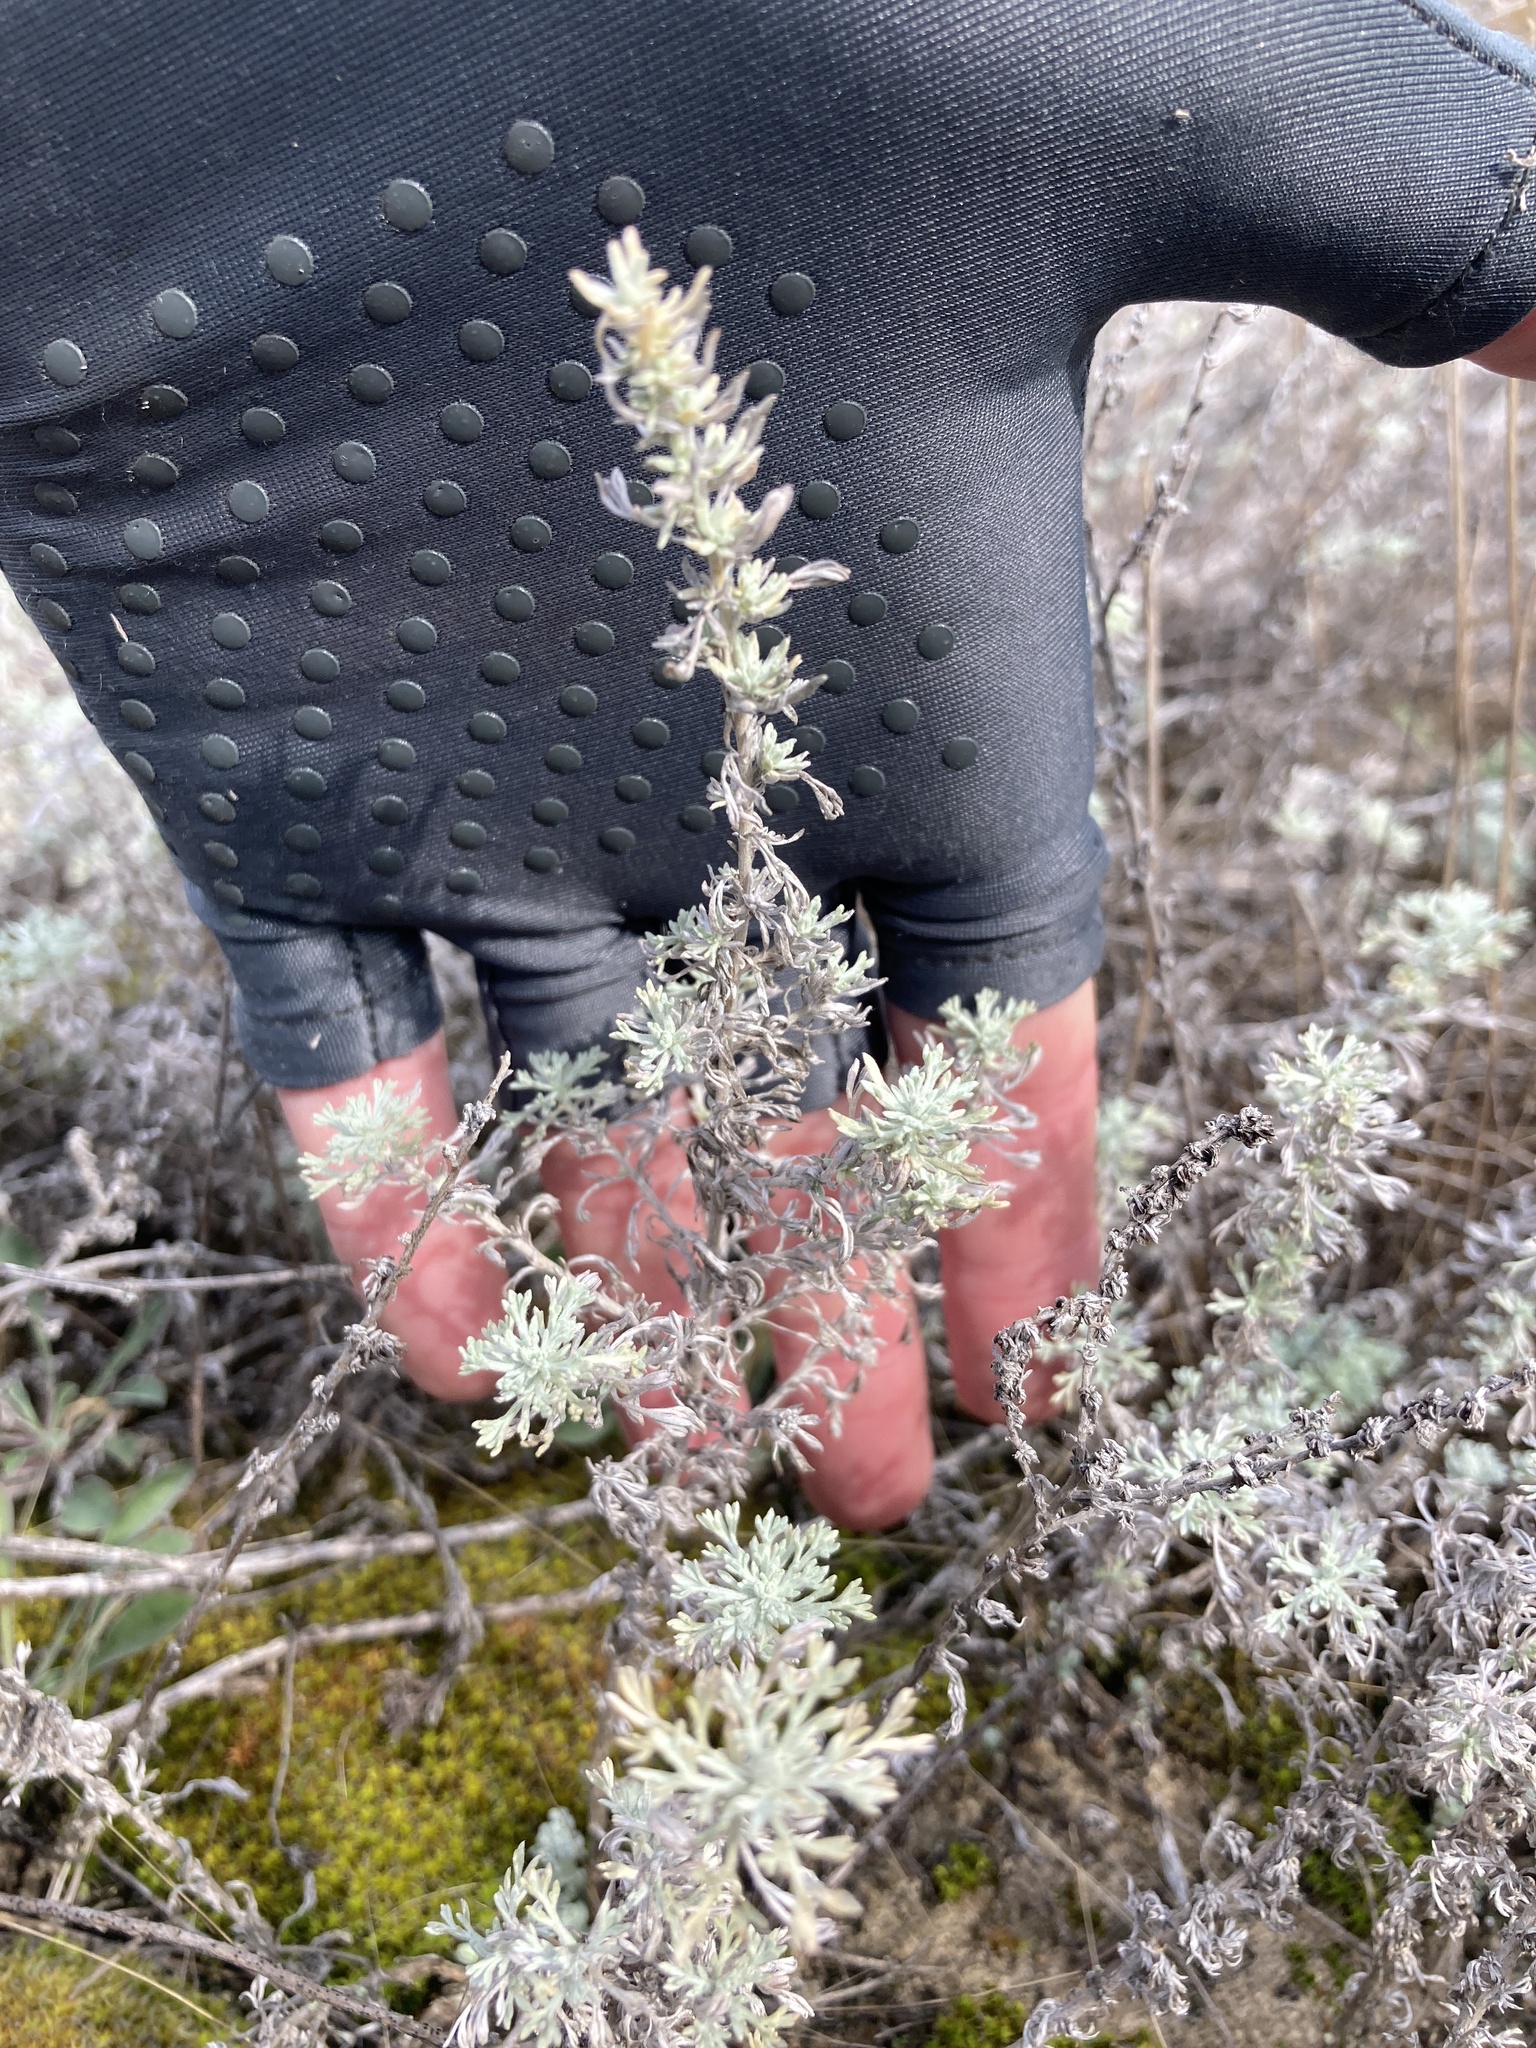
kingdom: Plantae
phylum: Tracheophyta
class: Magnoliopsida
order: Asterales
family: Asteraceae
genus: Artemisia
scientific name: Artemisia austriaca
